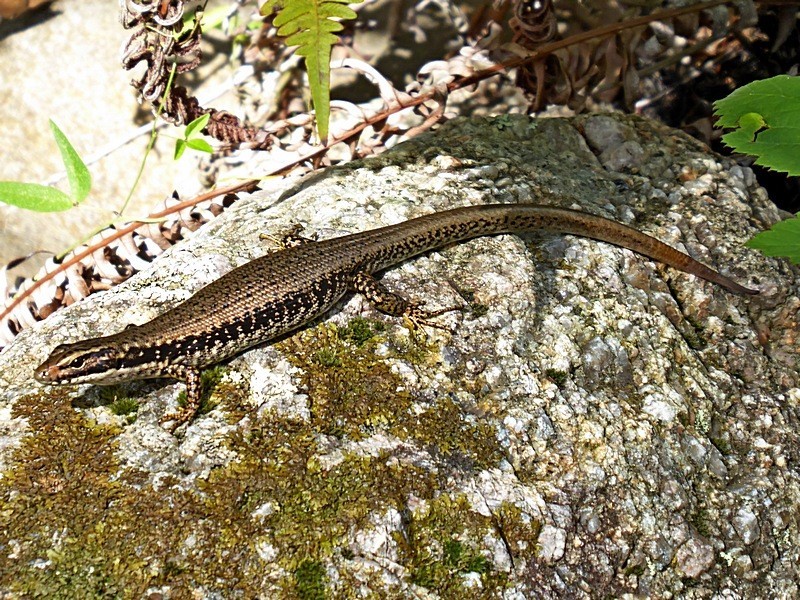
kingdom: Animalia
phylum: Chordata
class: Squamata
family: Scincidae
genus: Eulamprus
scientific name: Eulamprus heatwolei
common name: Warm-temperate water-skink
